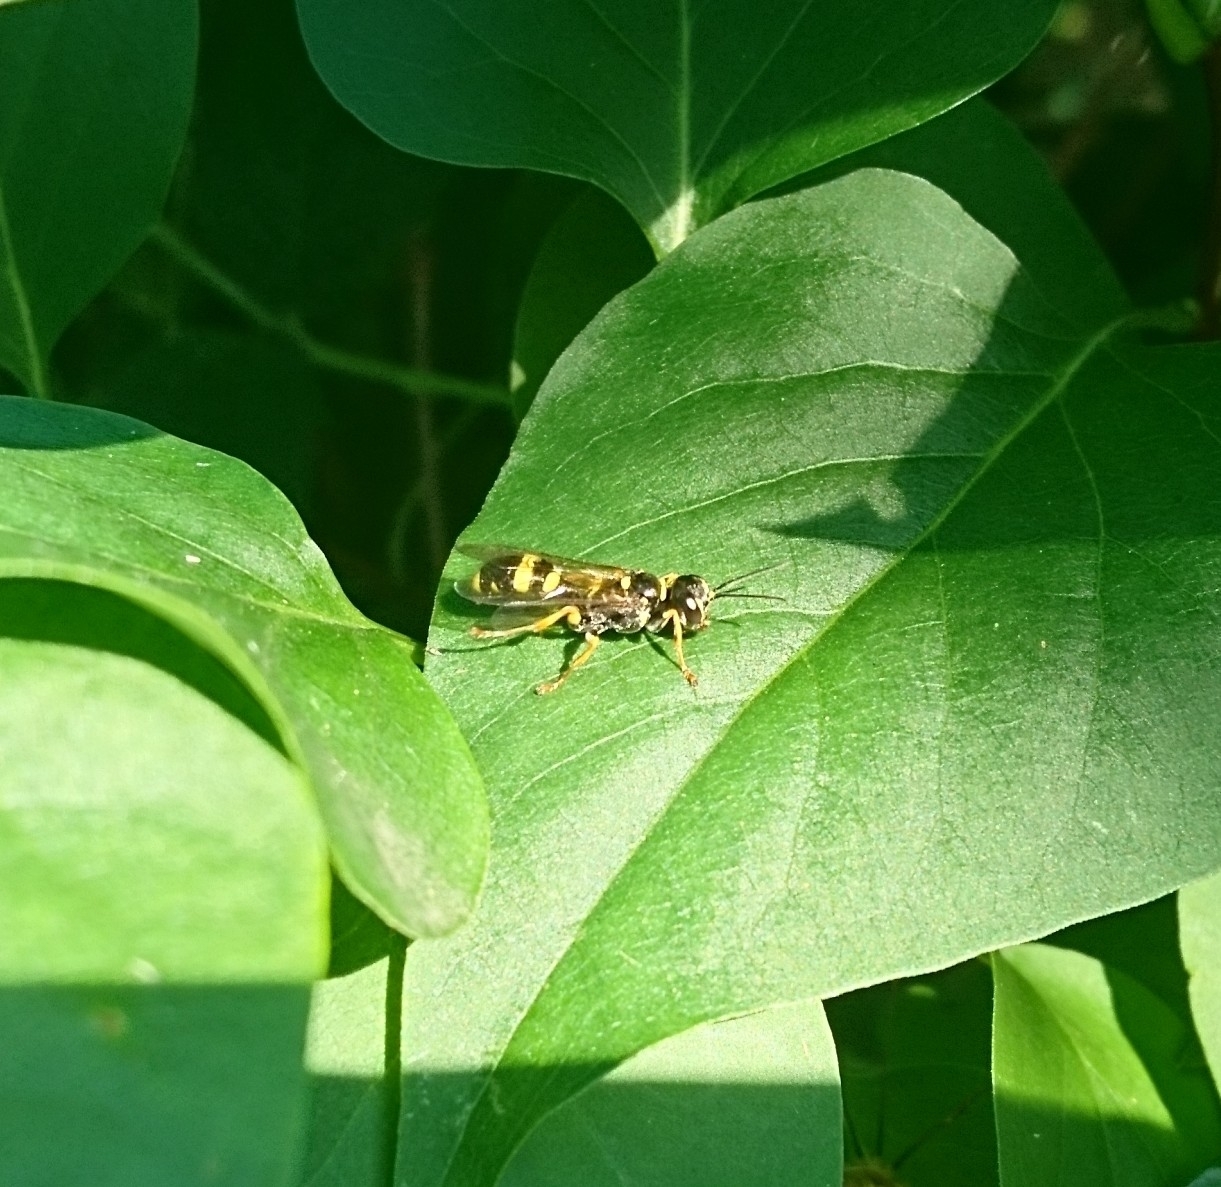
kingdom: Animalia
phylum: Arthropoda
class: Insecta
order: Hymenoptera
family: Crabronidae
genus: Mellinus
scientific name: Mellinus arvensis
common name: Field digger wasp
